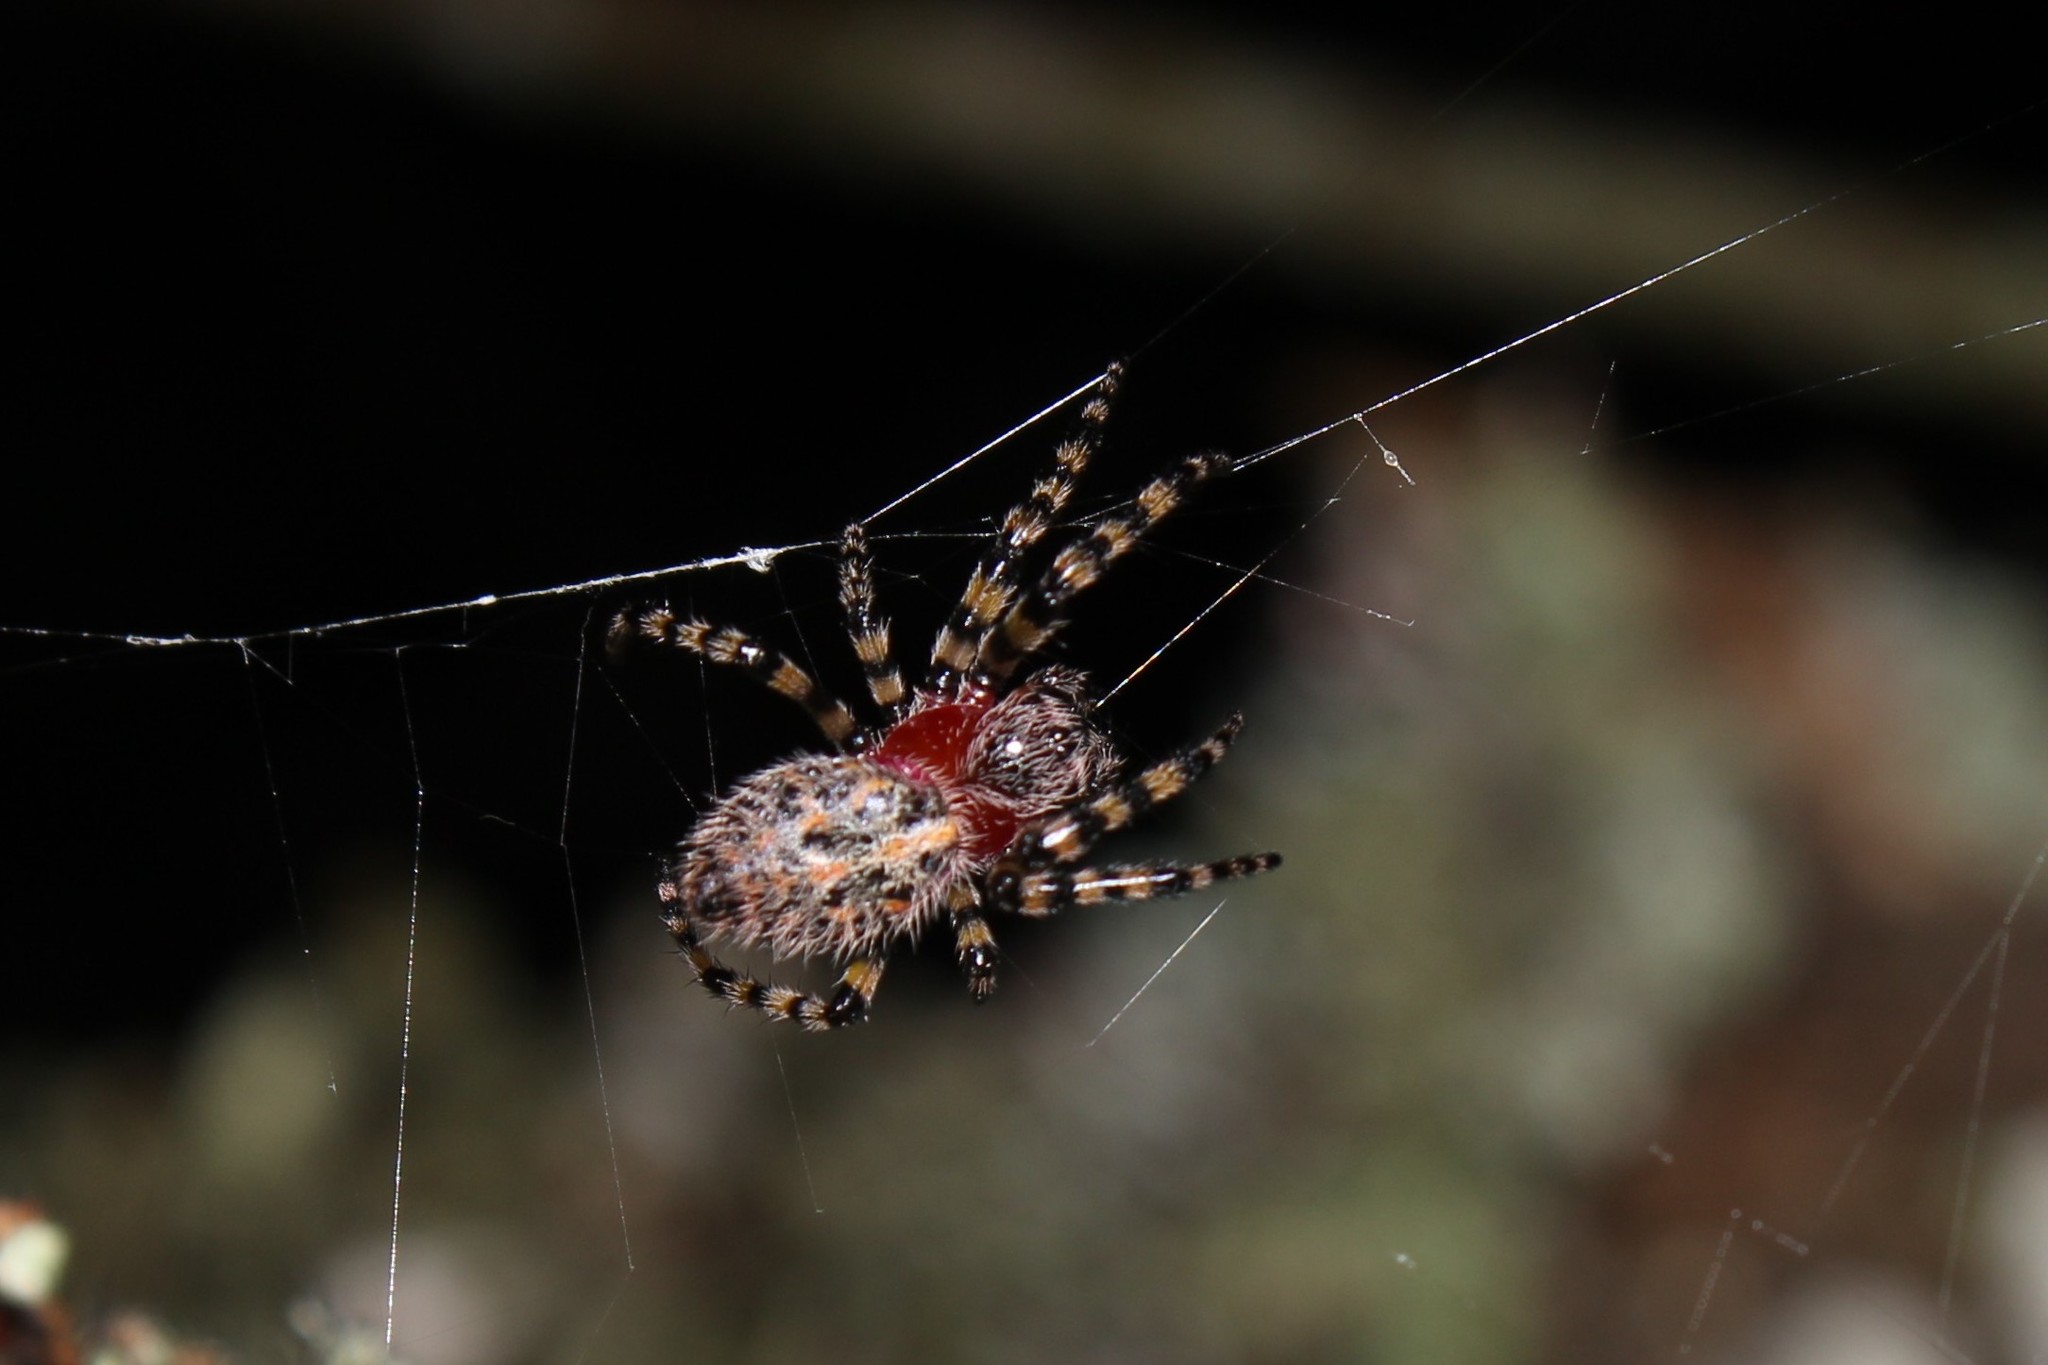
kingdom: Animalia
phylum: Arthropoda
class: Arachnida
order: Araneae
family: Araneidae
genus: Alpaida
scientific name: Alpaida alticeps
